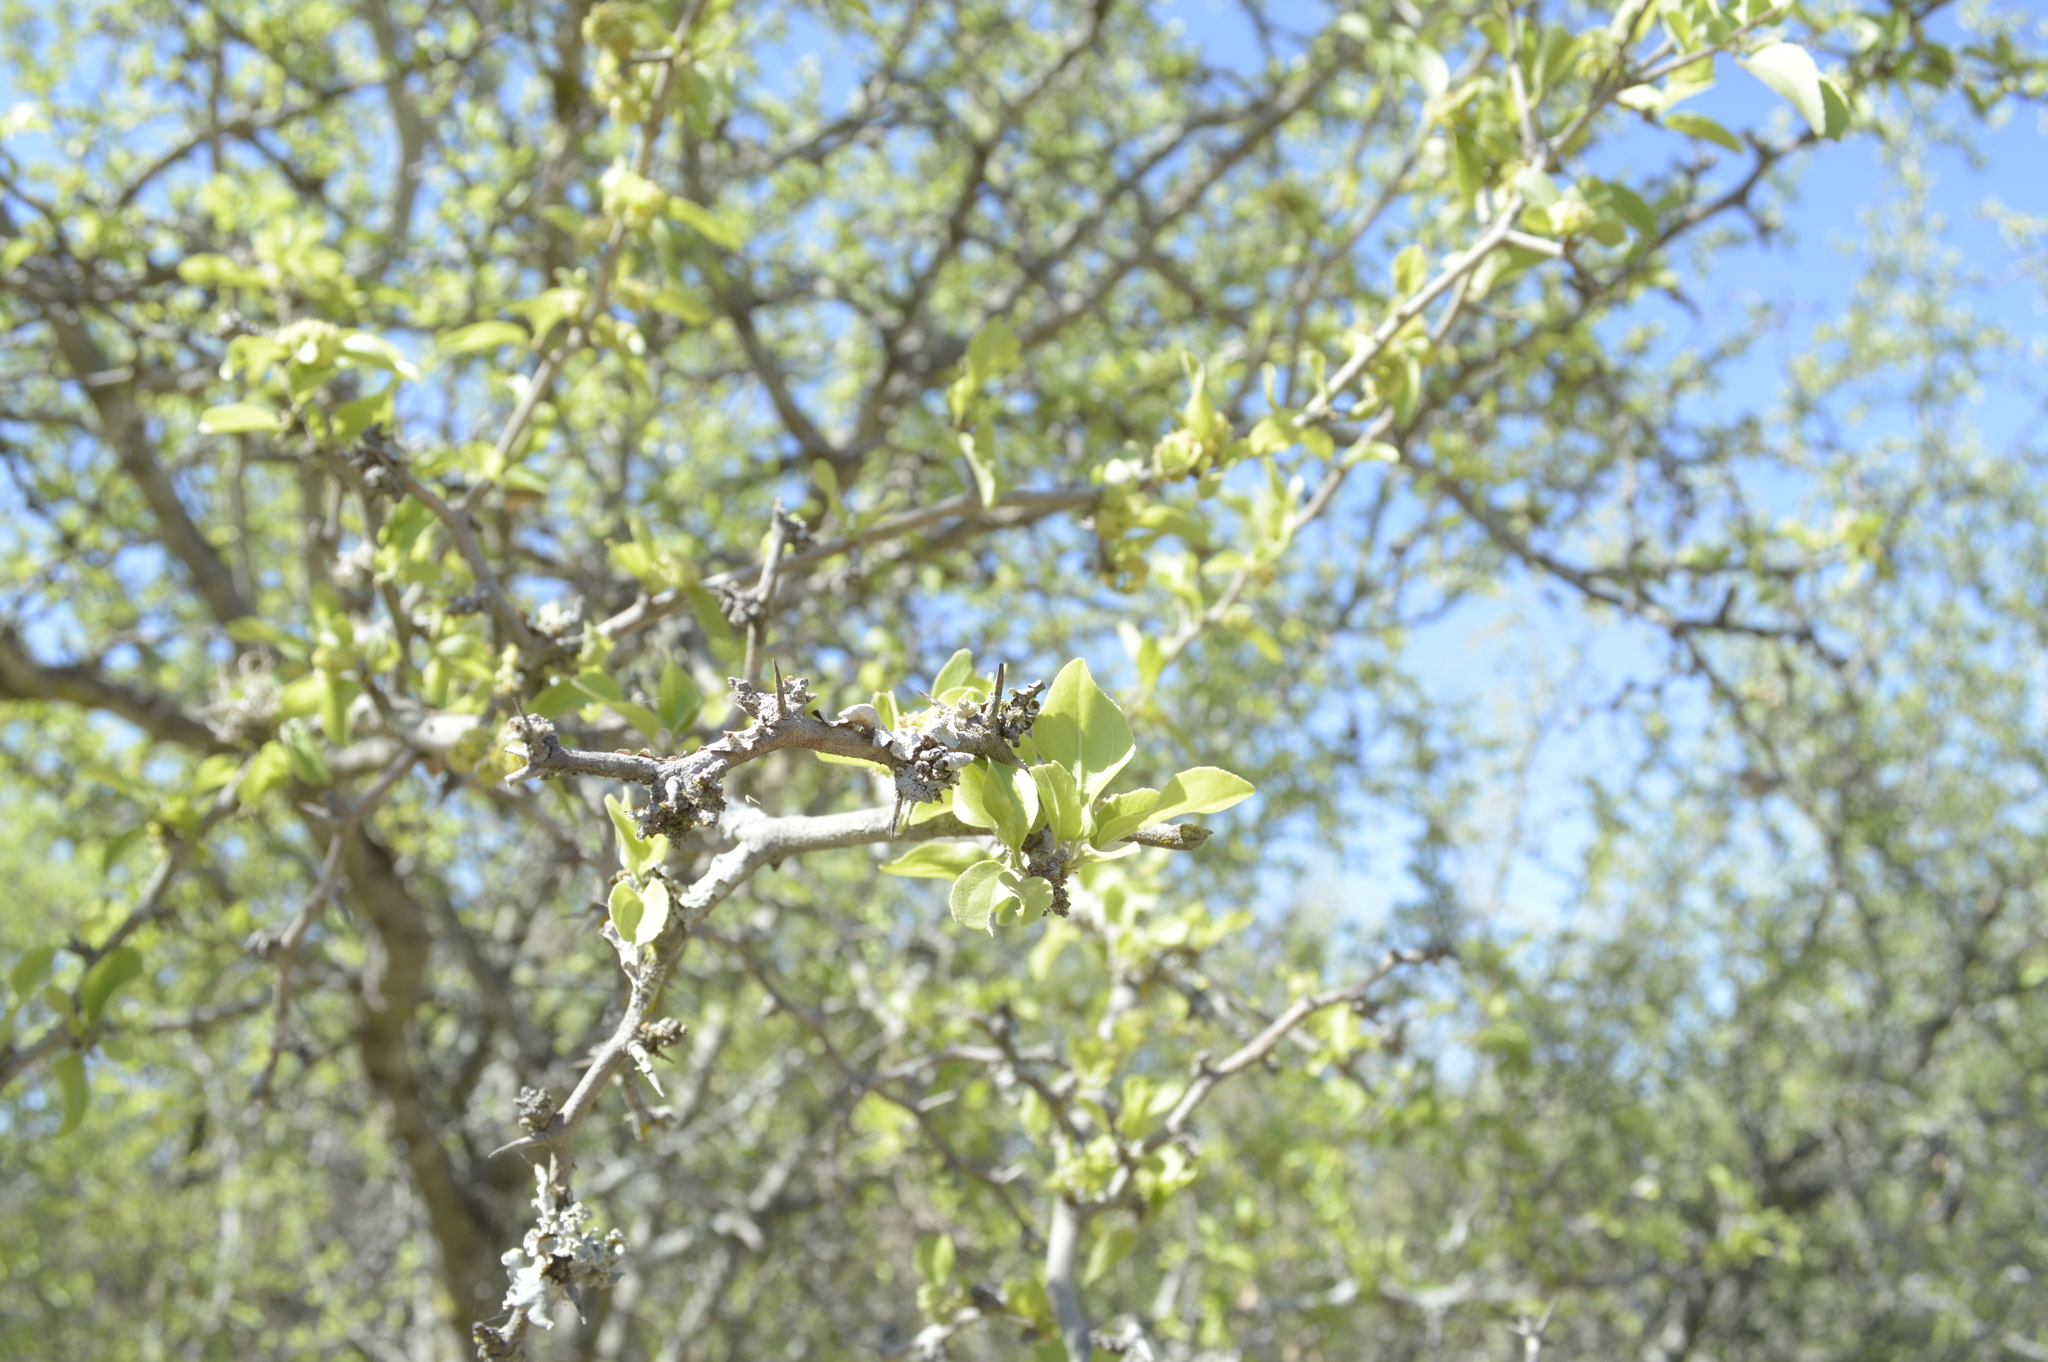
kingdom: Plantae
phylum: Tracheophyta
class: Magnoliopsida
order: Rosales
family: Rhamnaceae
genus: Sarcomphalus
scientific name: Sarcomphalus mistol
